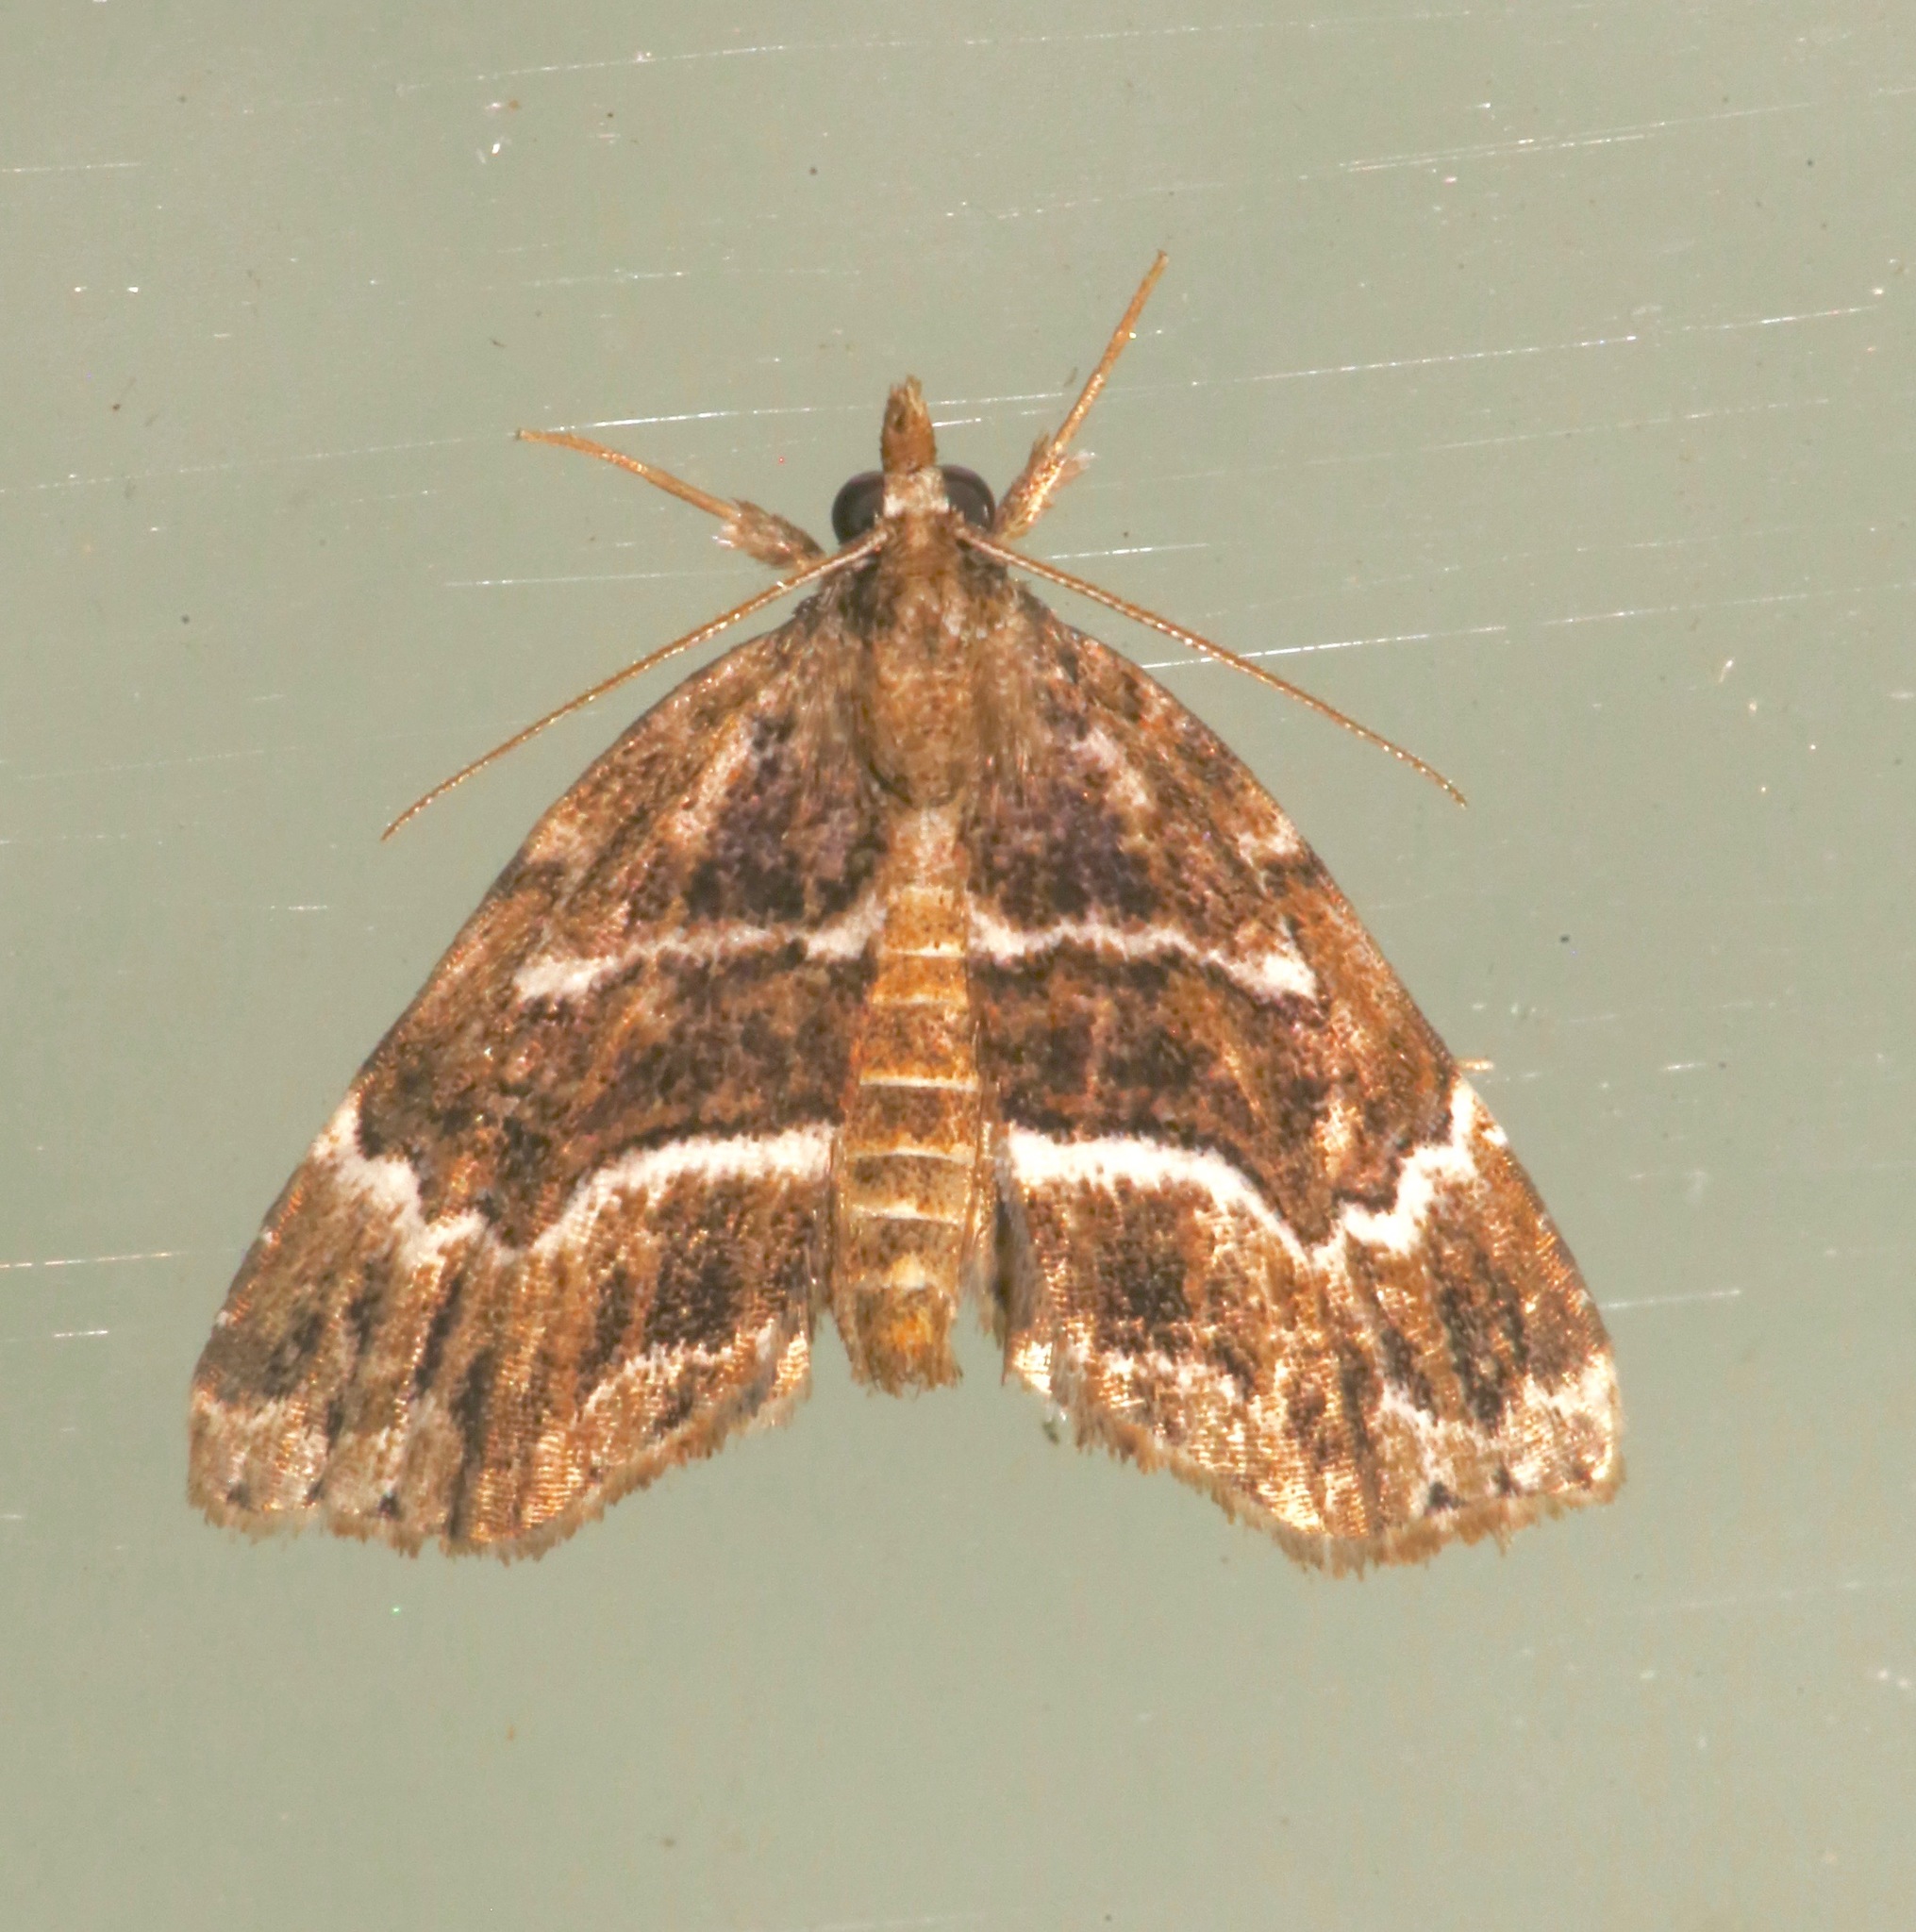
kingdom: Animalia
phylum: Arthropoda
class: Insecta
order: Lepidoptera
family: Erebidae
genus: Cutina
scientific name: Cutina arcuata
